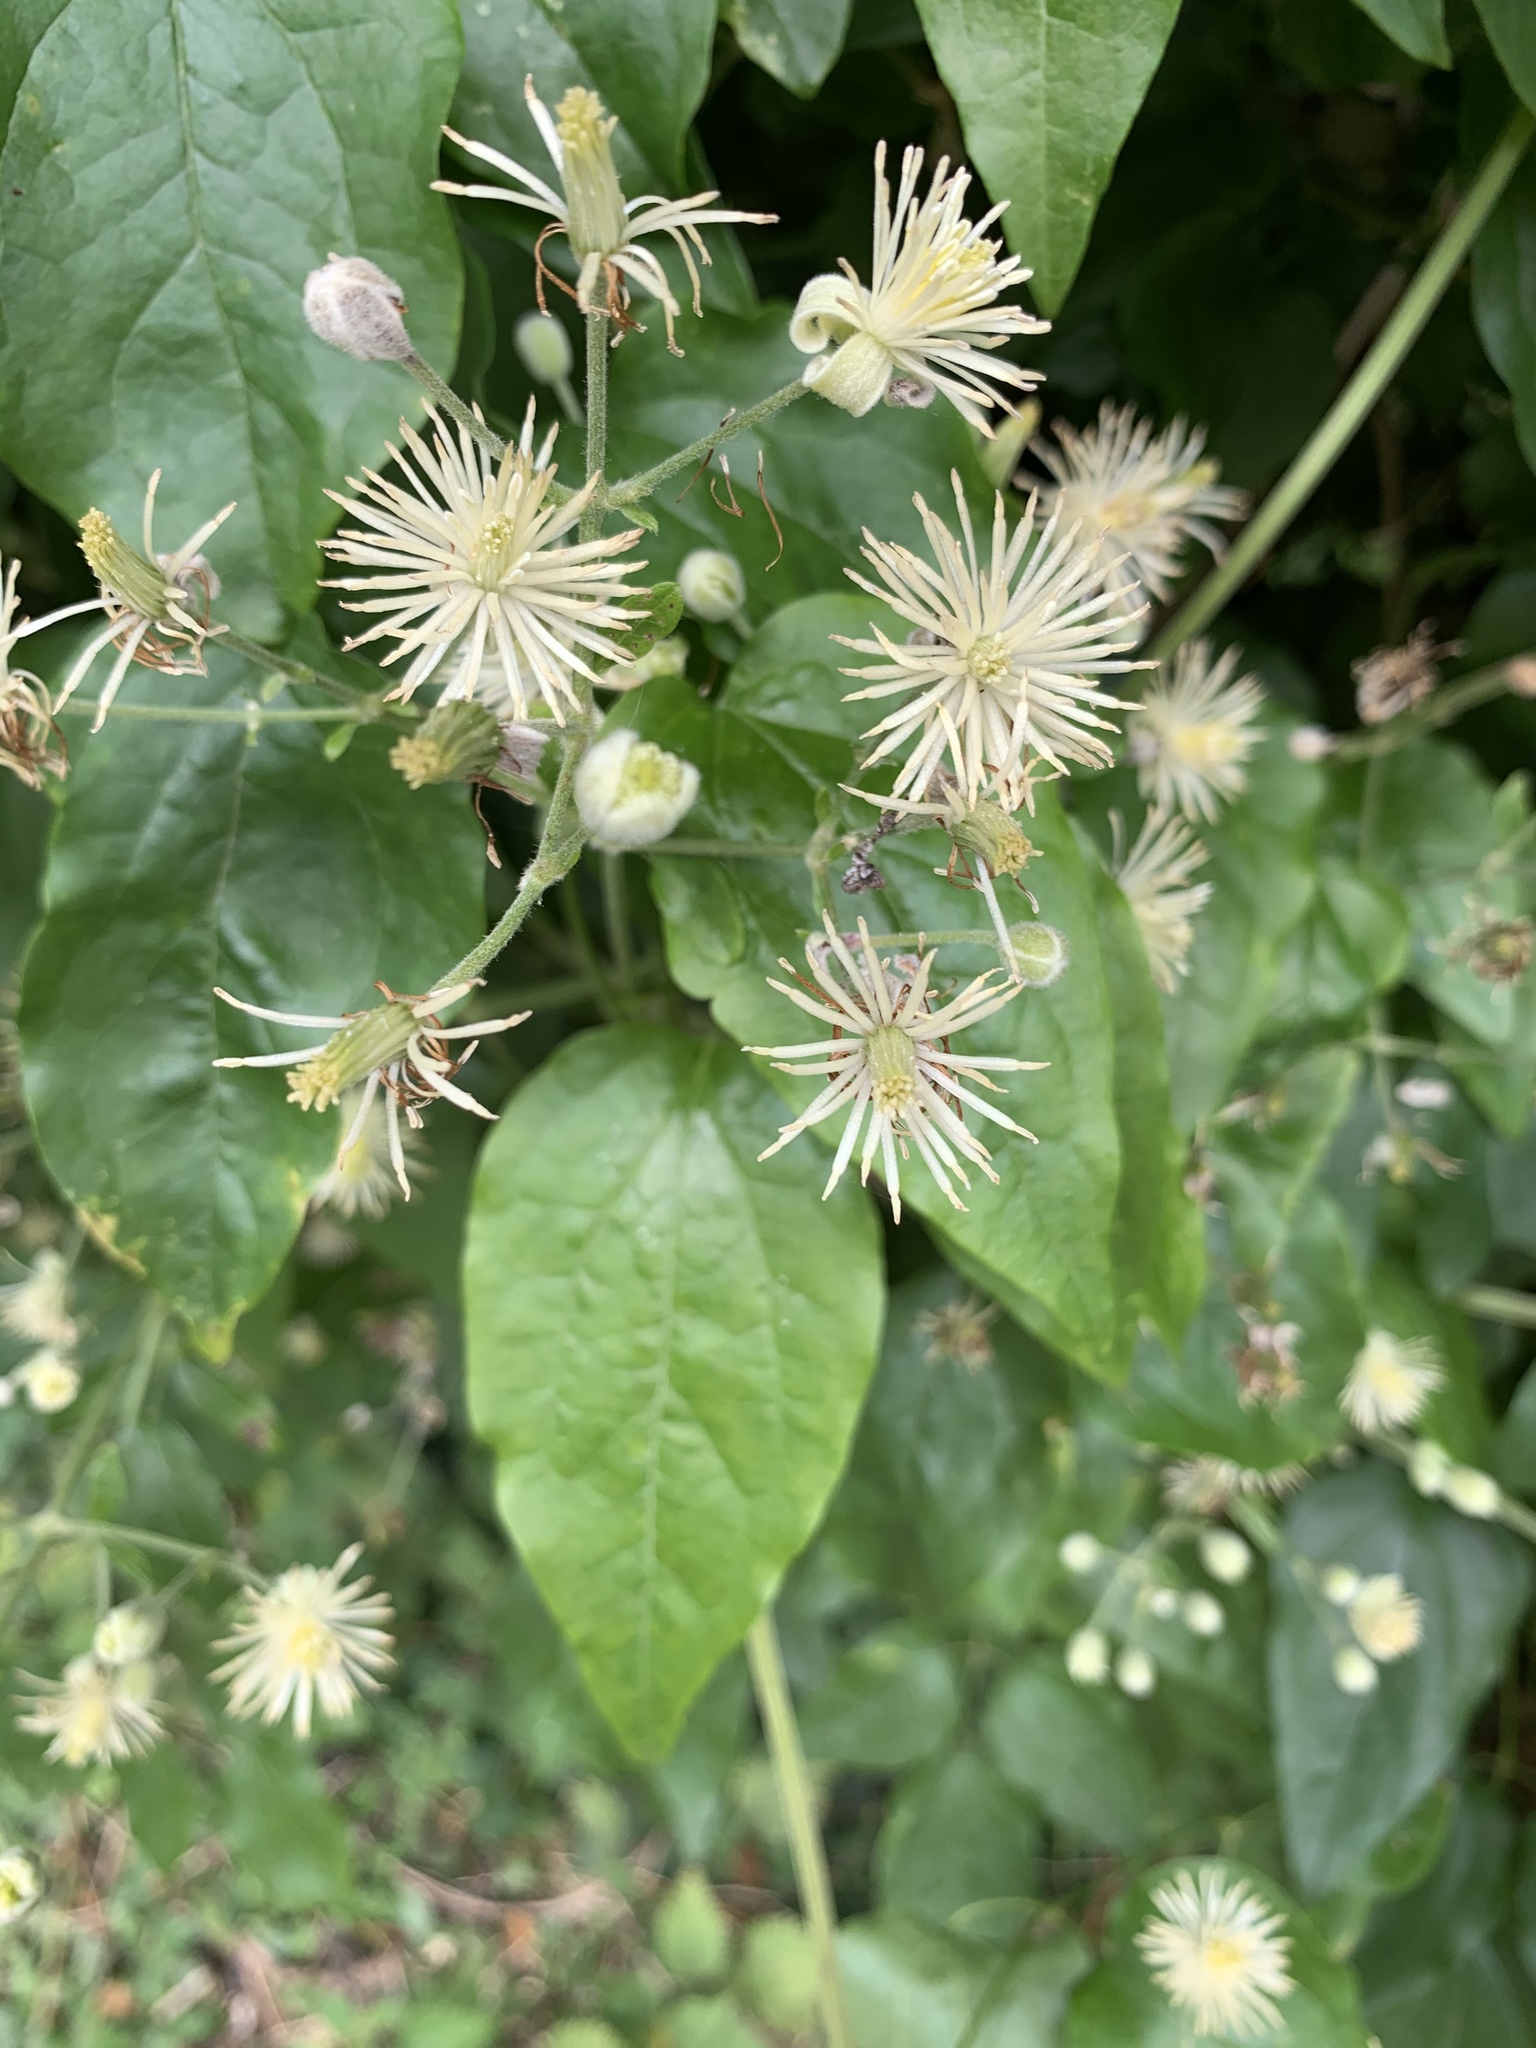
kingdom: Plantae
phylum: Tracheophyta
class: Magnoliopsida
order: Ranunculales
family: Ranunculaceae
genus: Clematis
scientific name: Clematis vitalba
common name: Evergreen clematis
